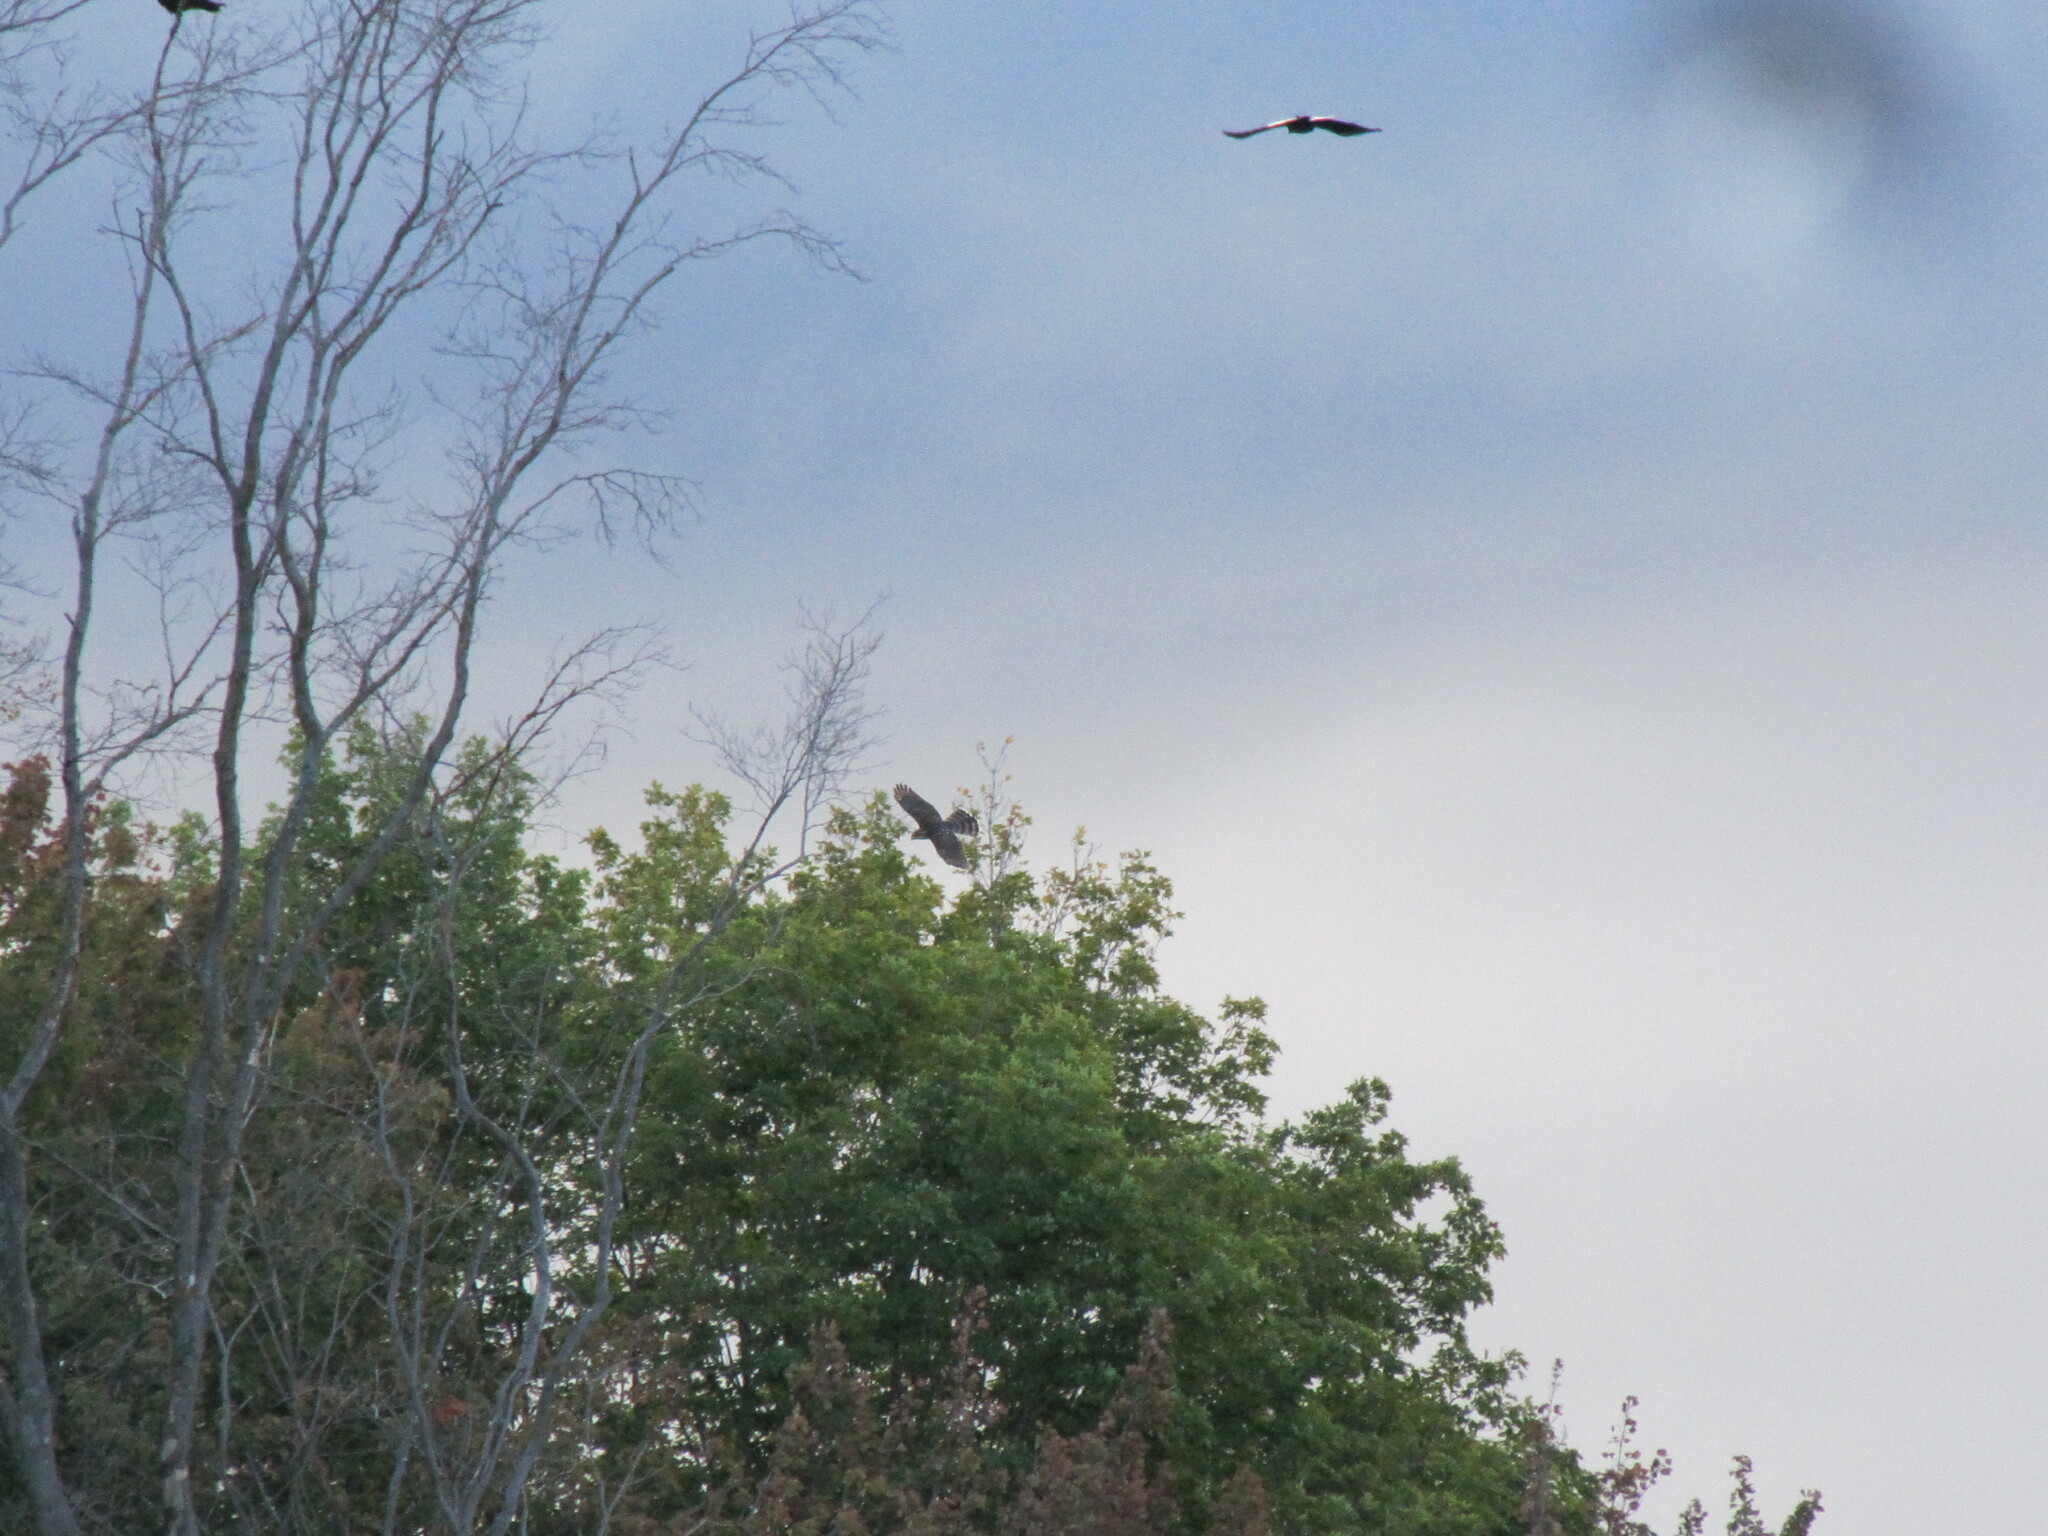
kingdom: Animalia
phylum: Chordata
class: Aves
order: Accipitriformes
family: Accipitridae
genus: Accipiter
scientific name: Accipiter cooperii
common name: Cooper's hawk
